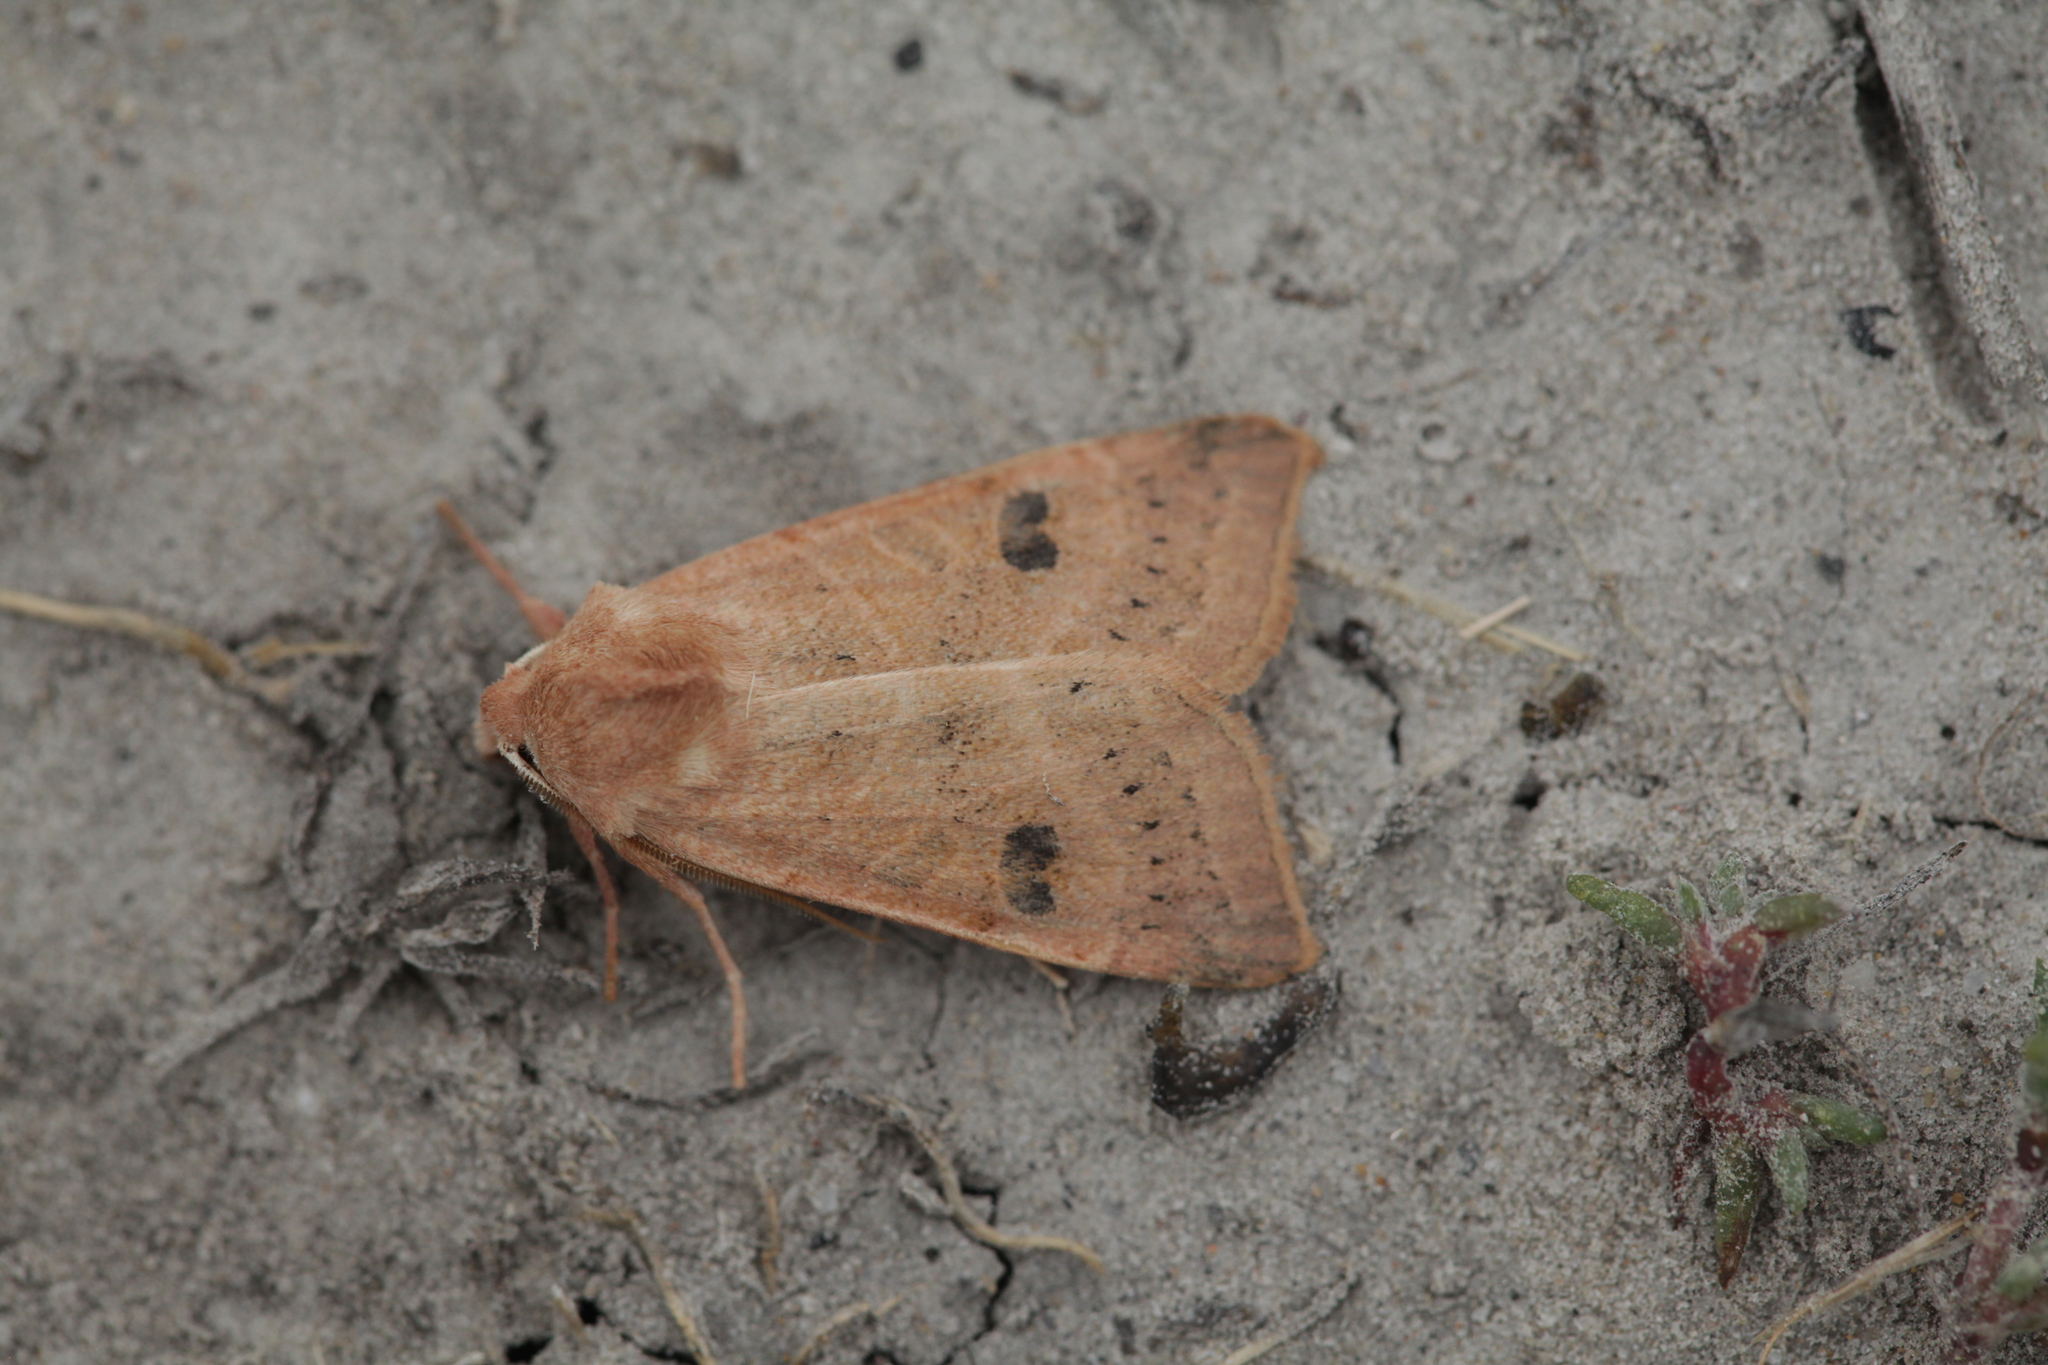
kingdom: Animalia
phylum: Arthropoda
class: Insecta
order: Lepidoptera
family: Noctuidae
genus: Miniphila
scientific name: Miniphila
